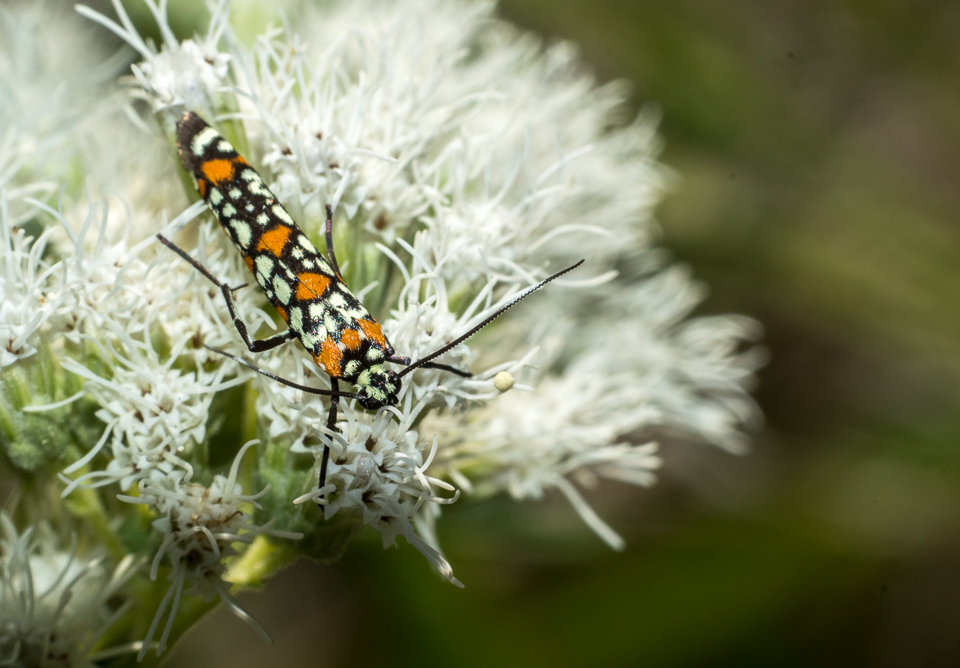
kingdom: Animalia
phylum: Arthropoda
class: Insecta
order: Lepidoptera
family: Attevidae
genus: Atteva
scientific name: Atteva punctella
